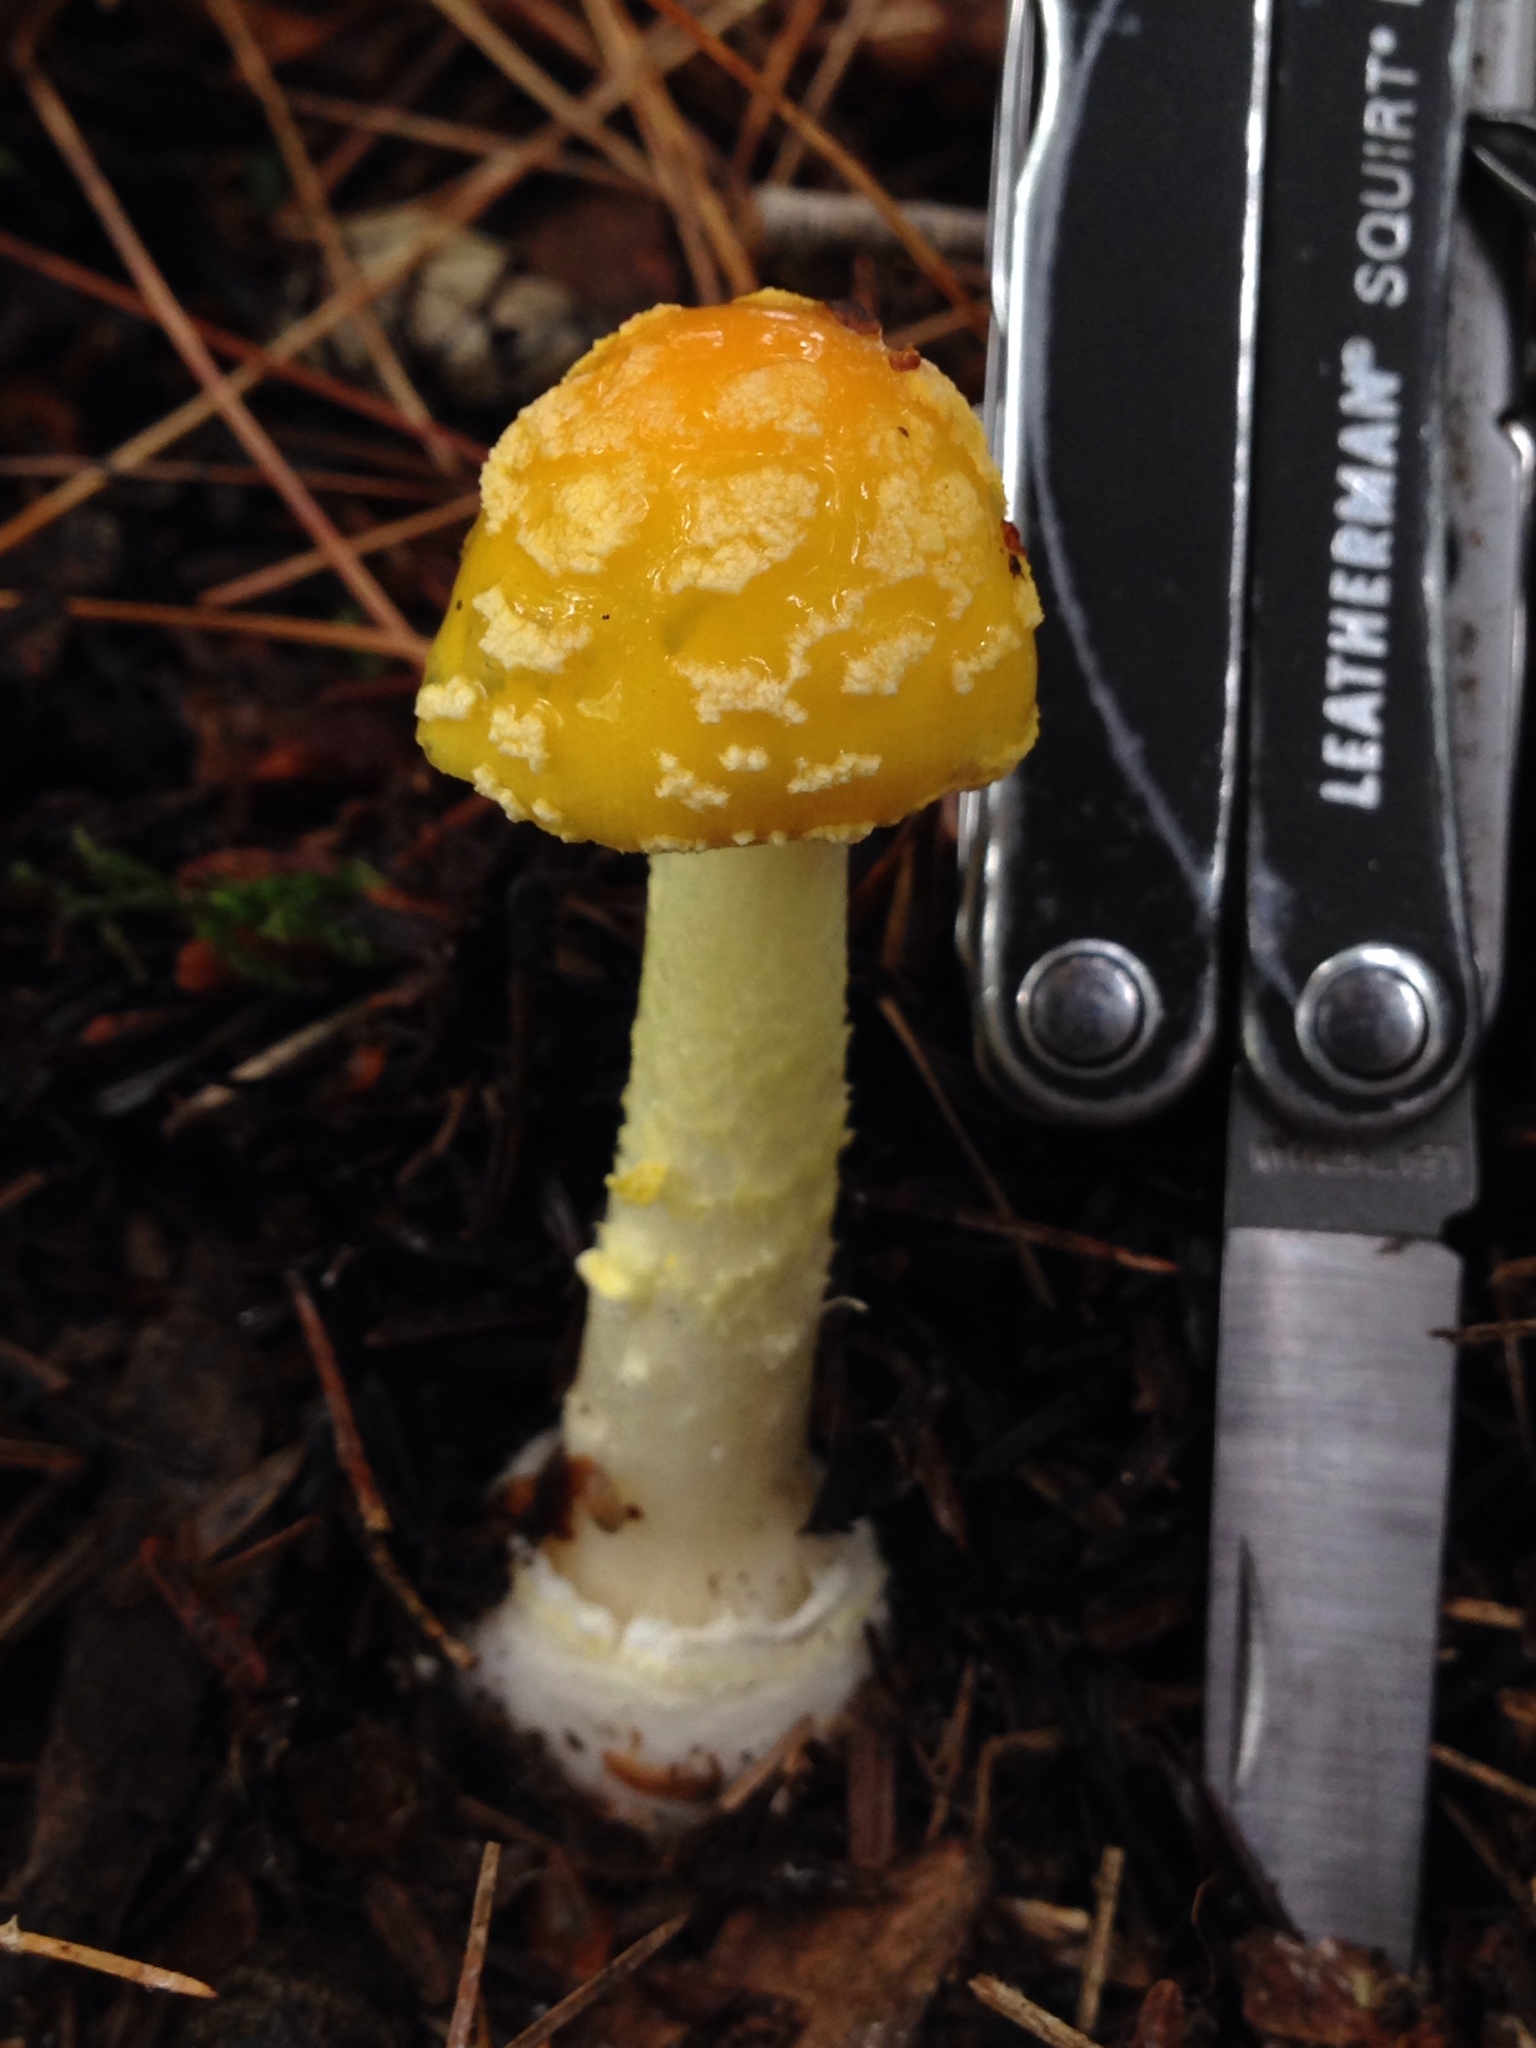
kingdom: Fungi
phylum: Basidiomycota
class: Agaricomycetes
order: Agaricales
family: Amanitaceae
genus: Amanita
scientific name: Amanita flavoconia
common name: Yellow patches
